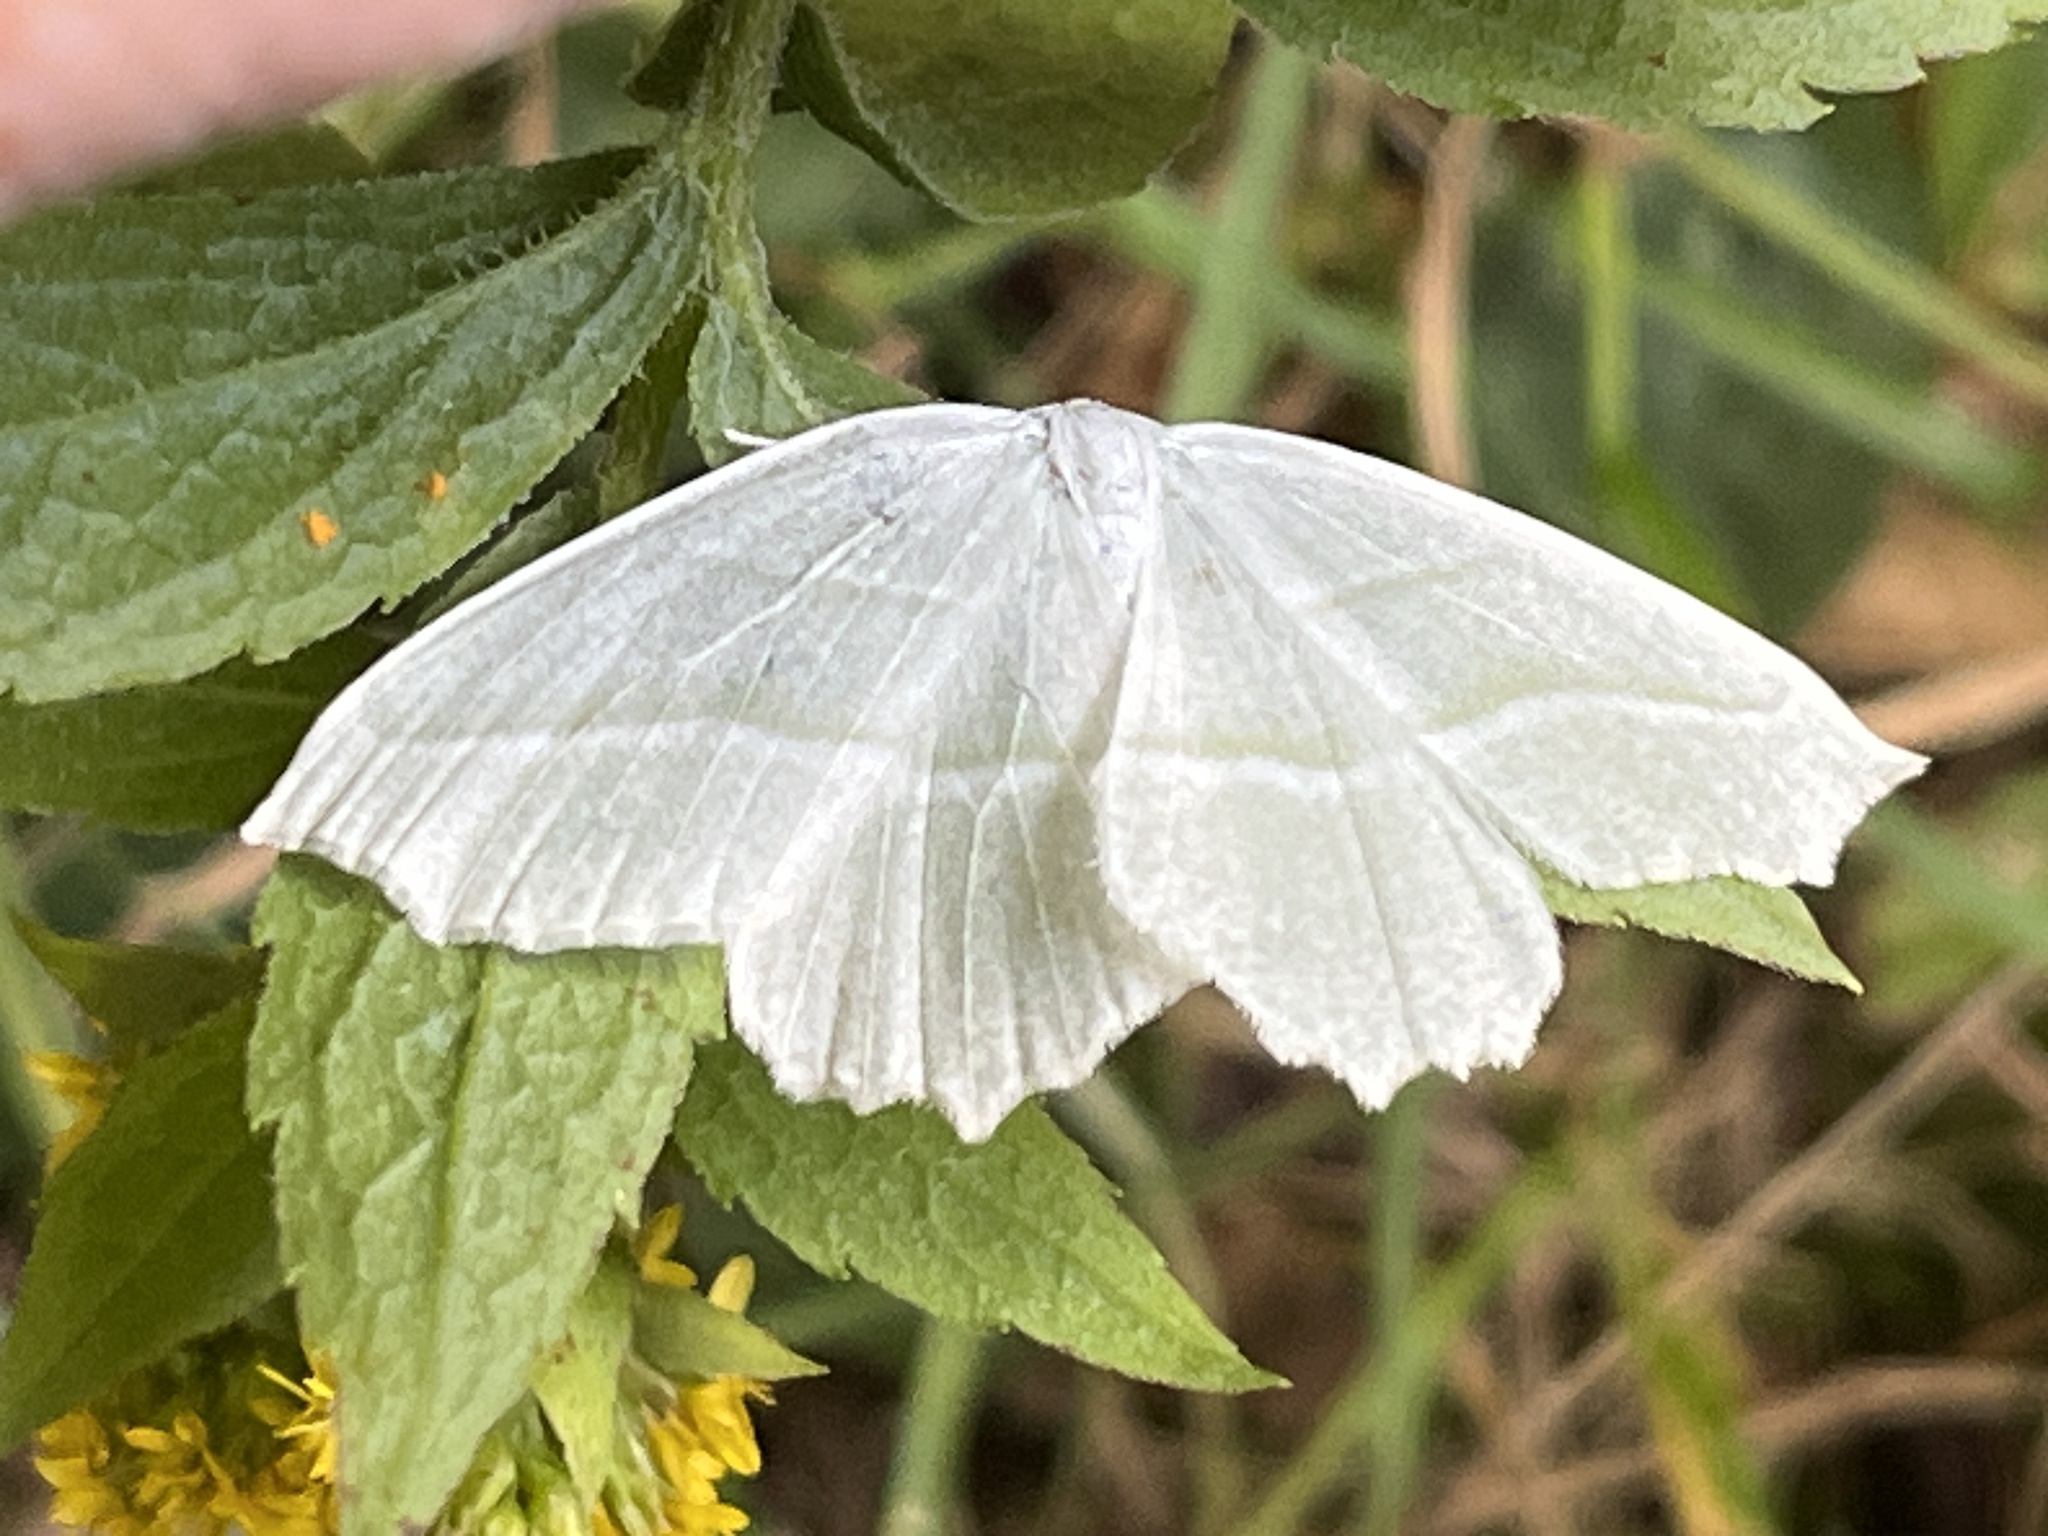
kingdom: Animalia
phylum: Arthropoda
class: Insecta
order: Lepidoptera
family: Geometridae
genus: Campaea
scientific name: Campaea perlata
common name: Fringed looper
